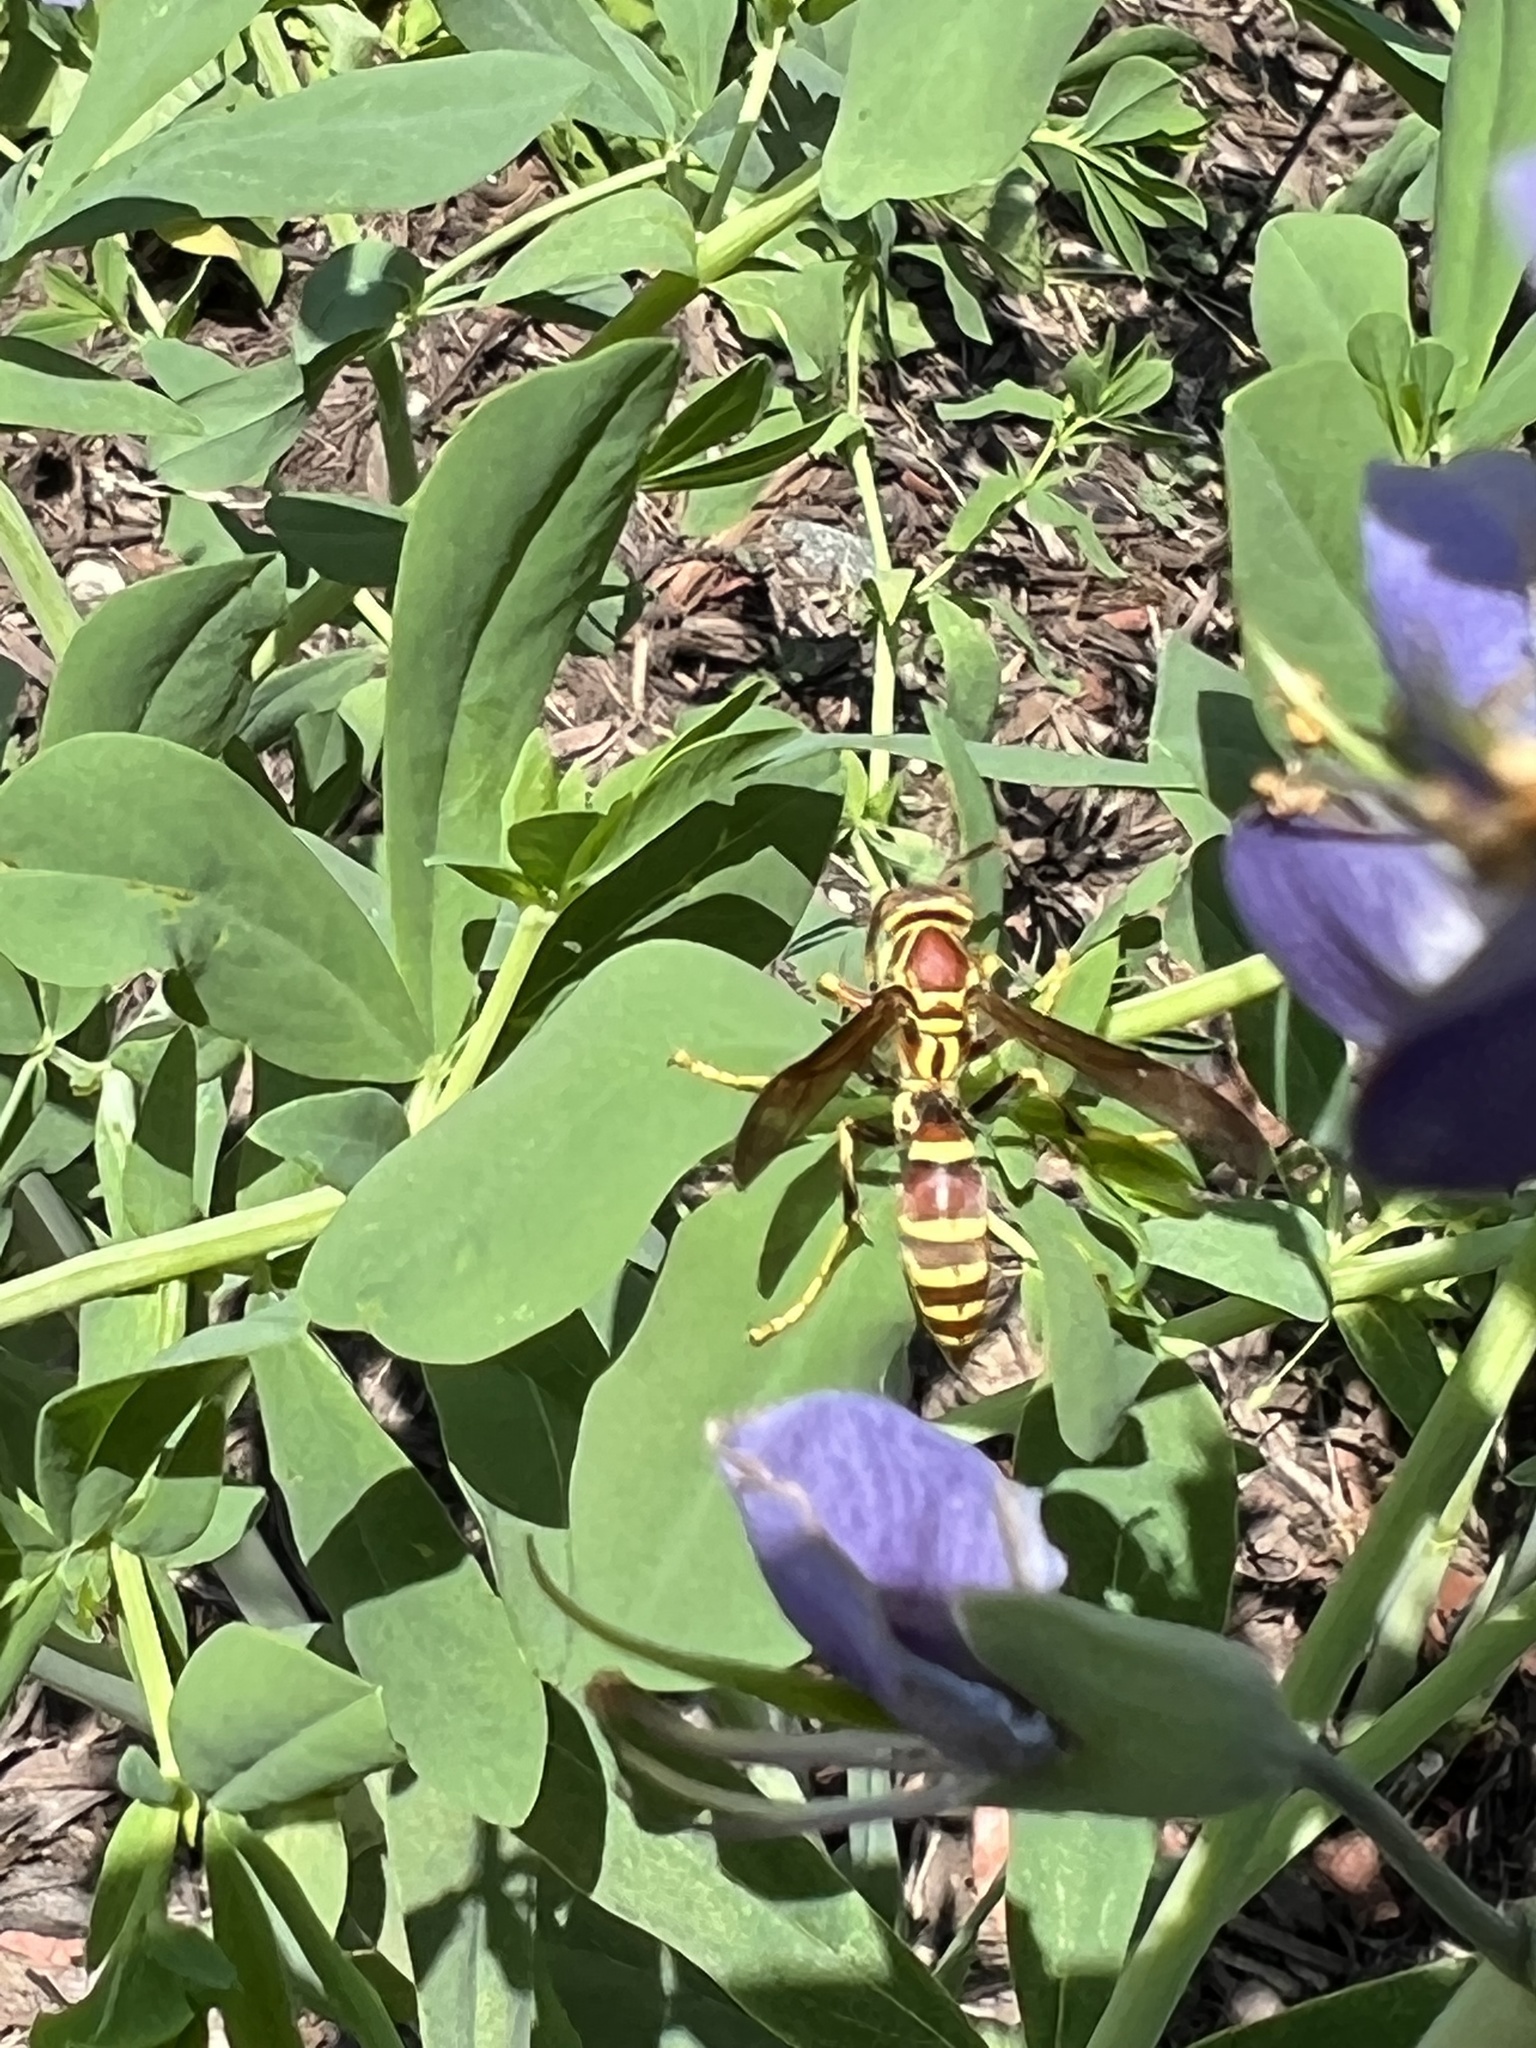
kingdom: Animalia
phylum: Arthropoda
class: Insecta
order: Hymenoptera
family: Eumenidae
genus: Polistes
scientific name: Polistes exclamans
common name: Paper wasp
